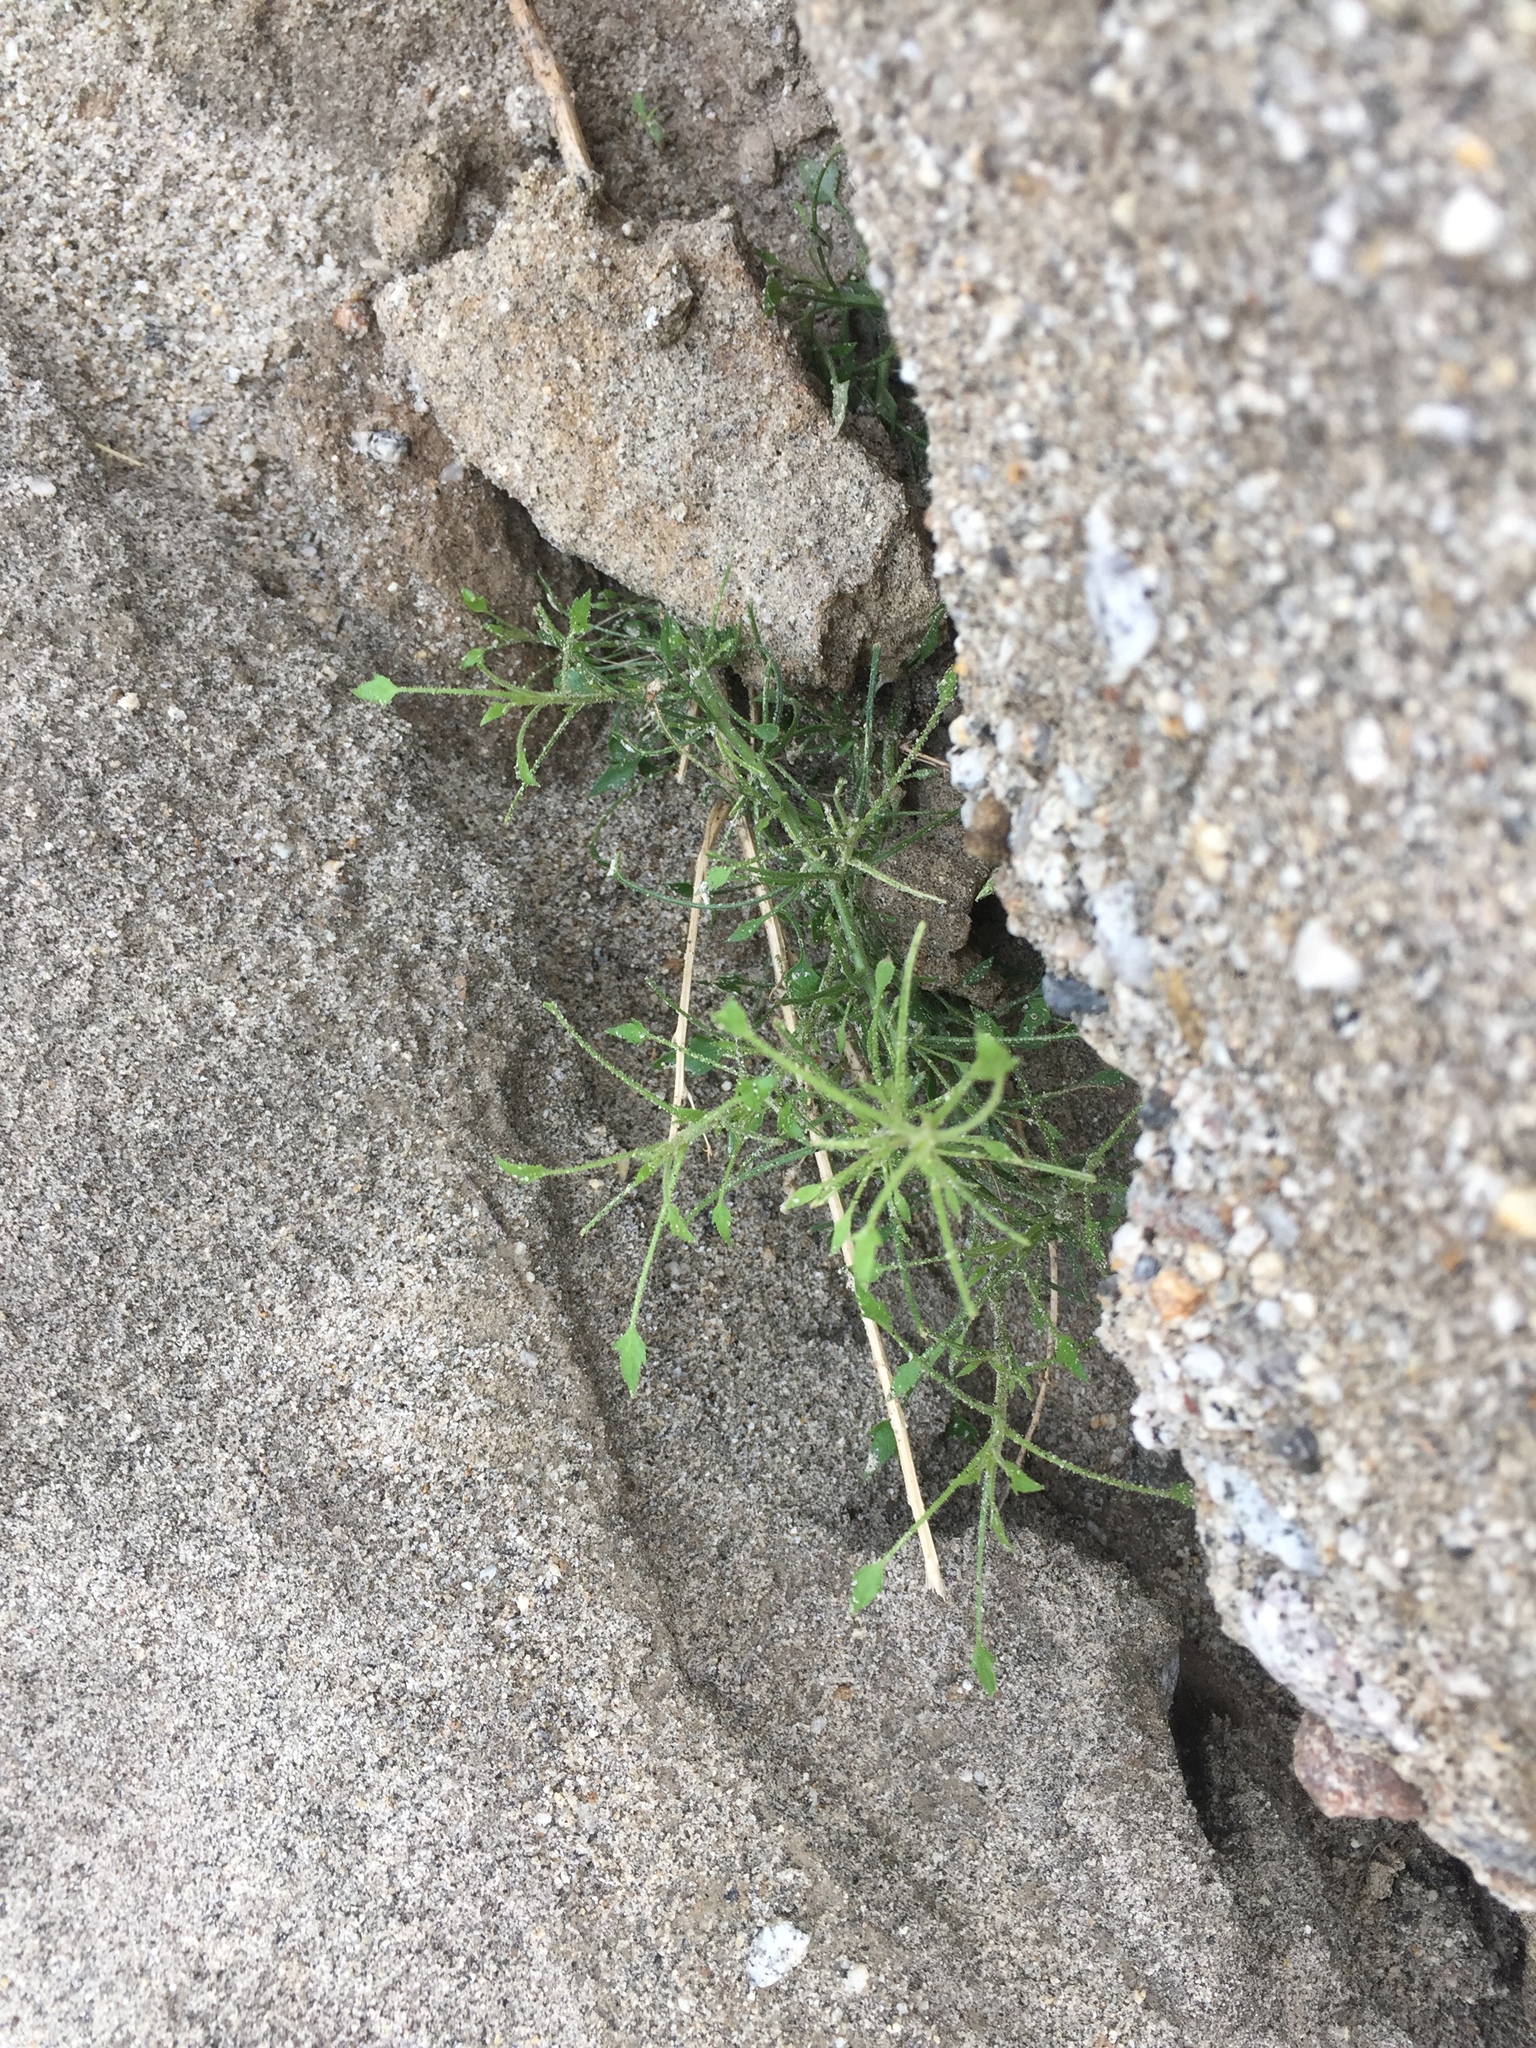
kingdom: Plantae
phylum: Tracheophyta
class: Magnoliopsida
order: Asterales
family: Asteraceae
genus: Pleurocoronis
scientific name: Pleurocoronis pluriseta
